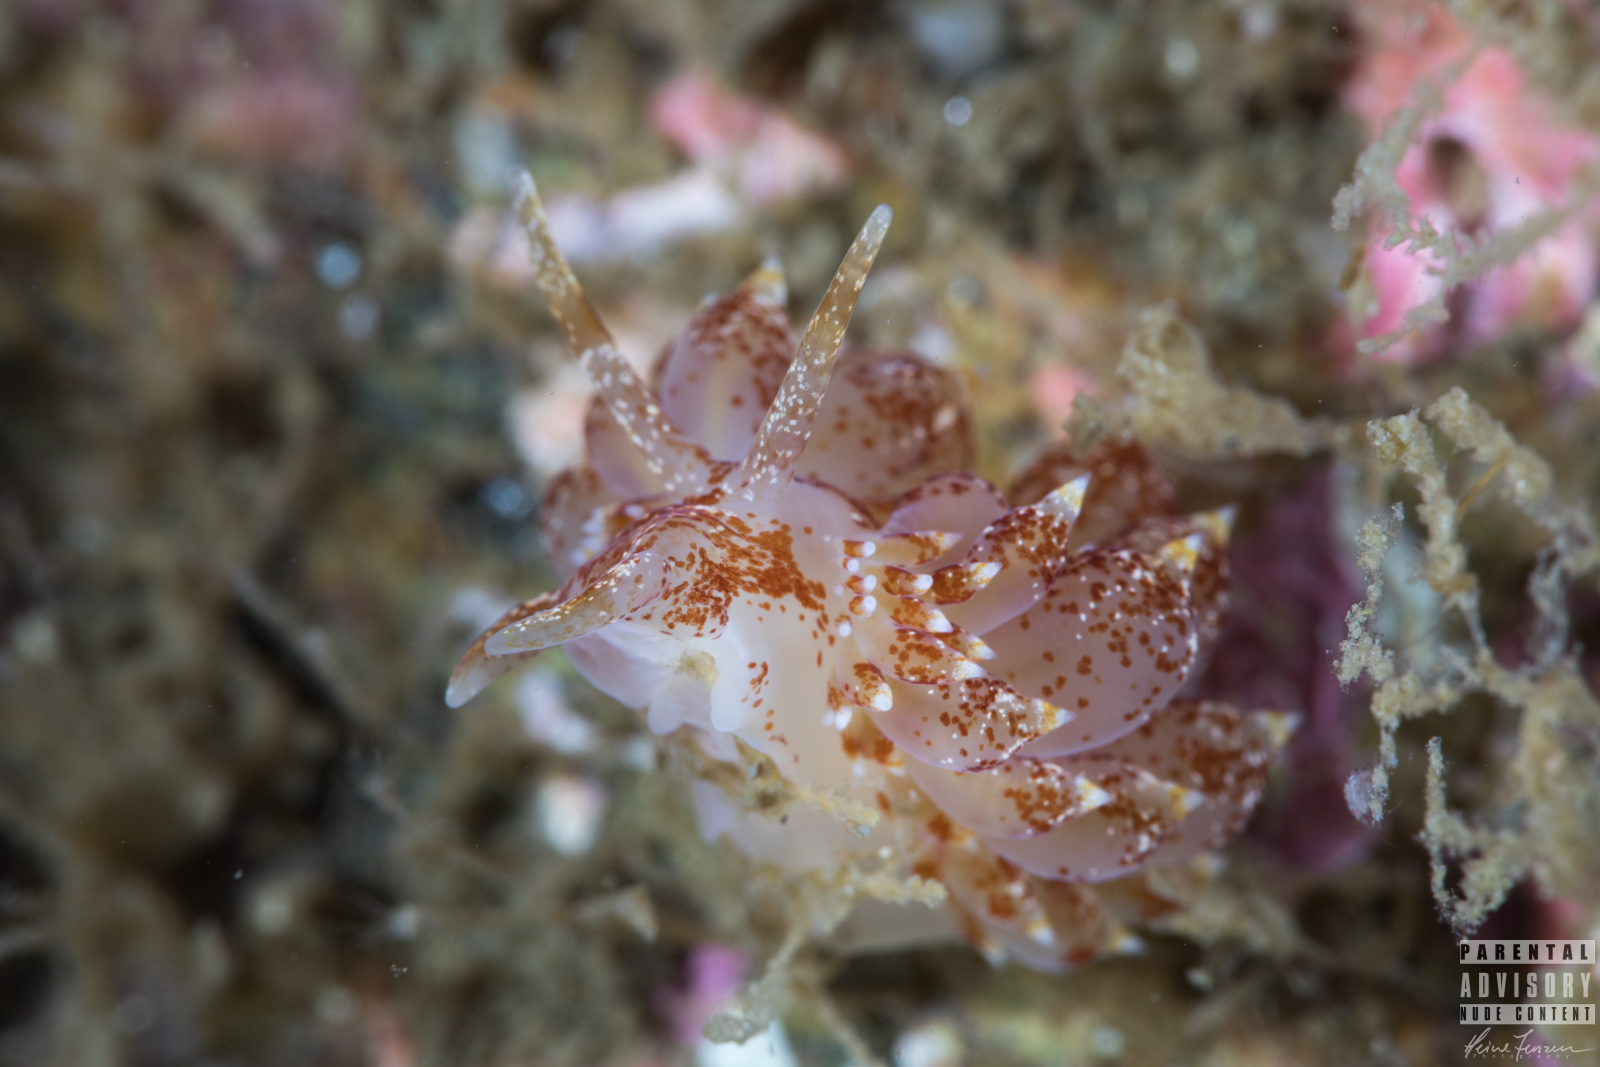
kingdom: Animalia
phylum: Mollusca
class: Gastropoda
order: Nudibranchia
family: Eubranchidae
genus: Amphorina
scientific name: Amphorina pallida
